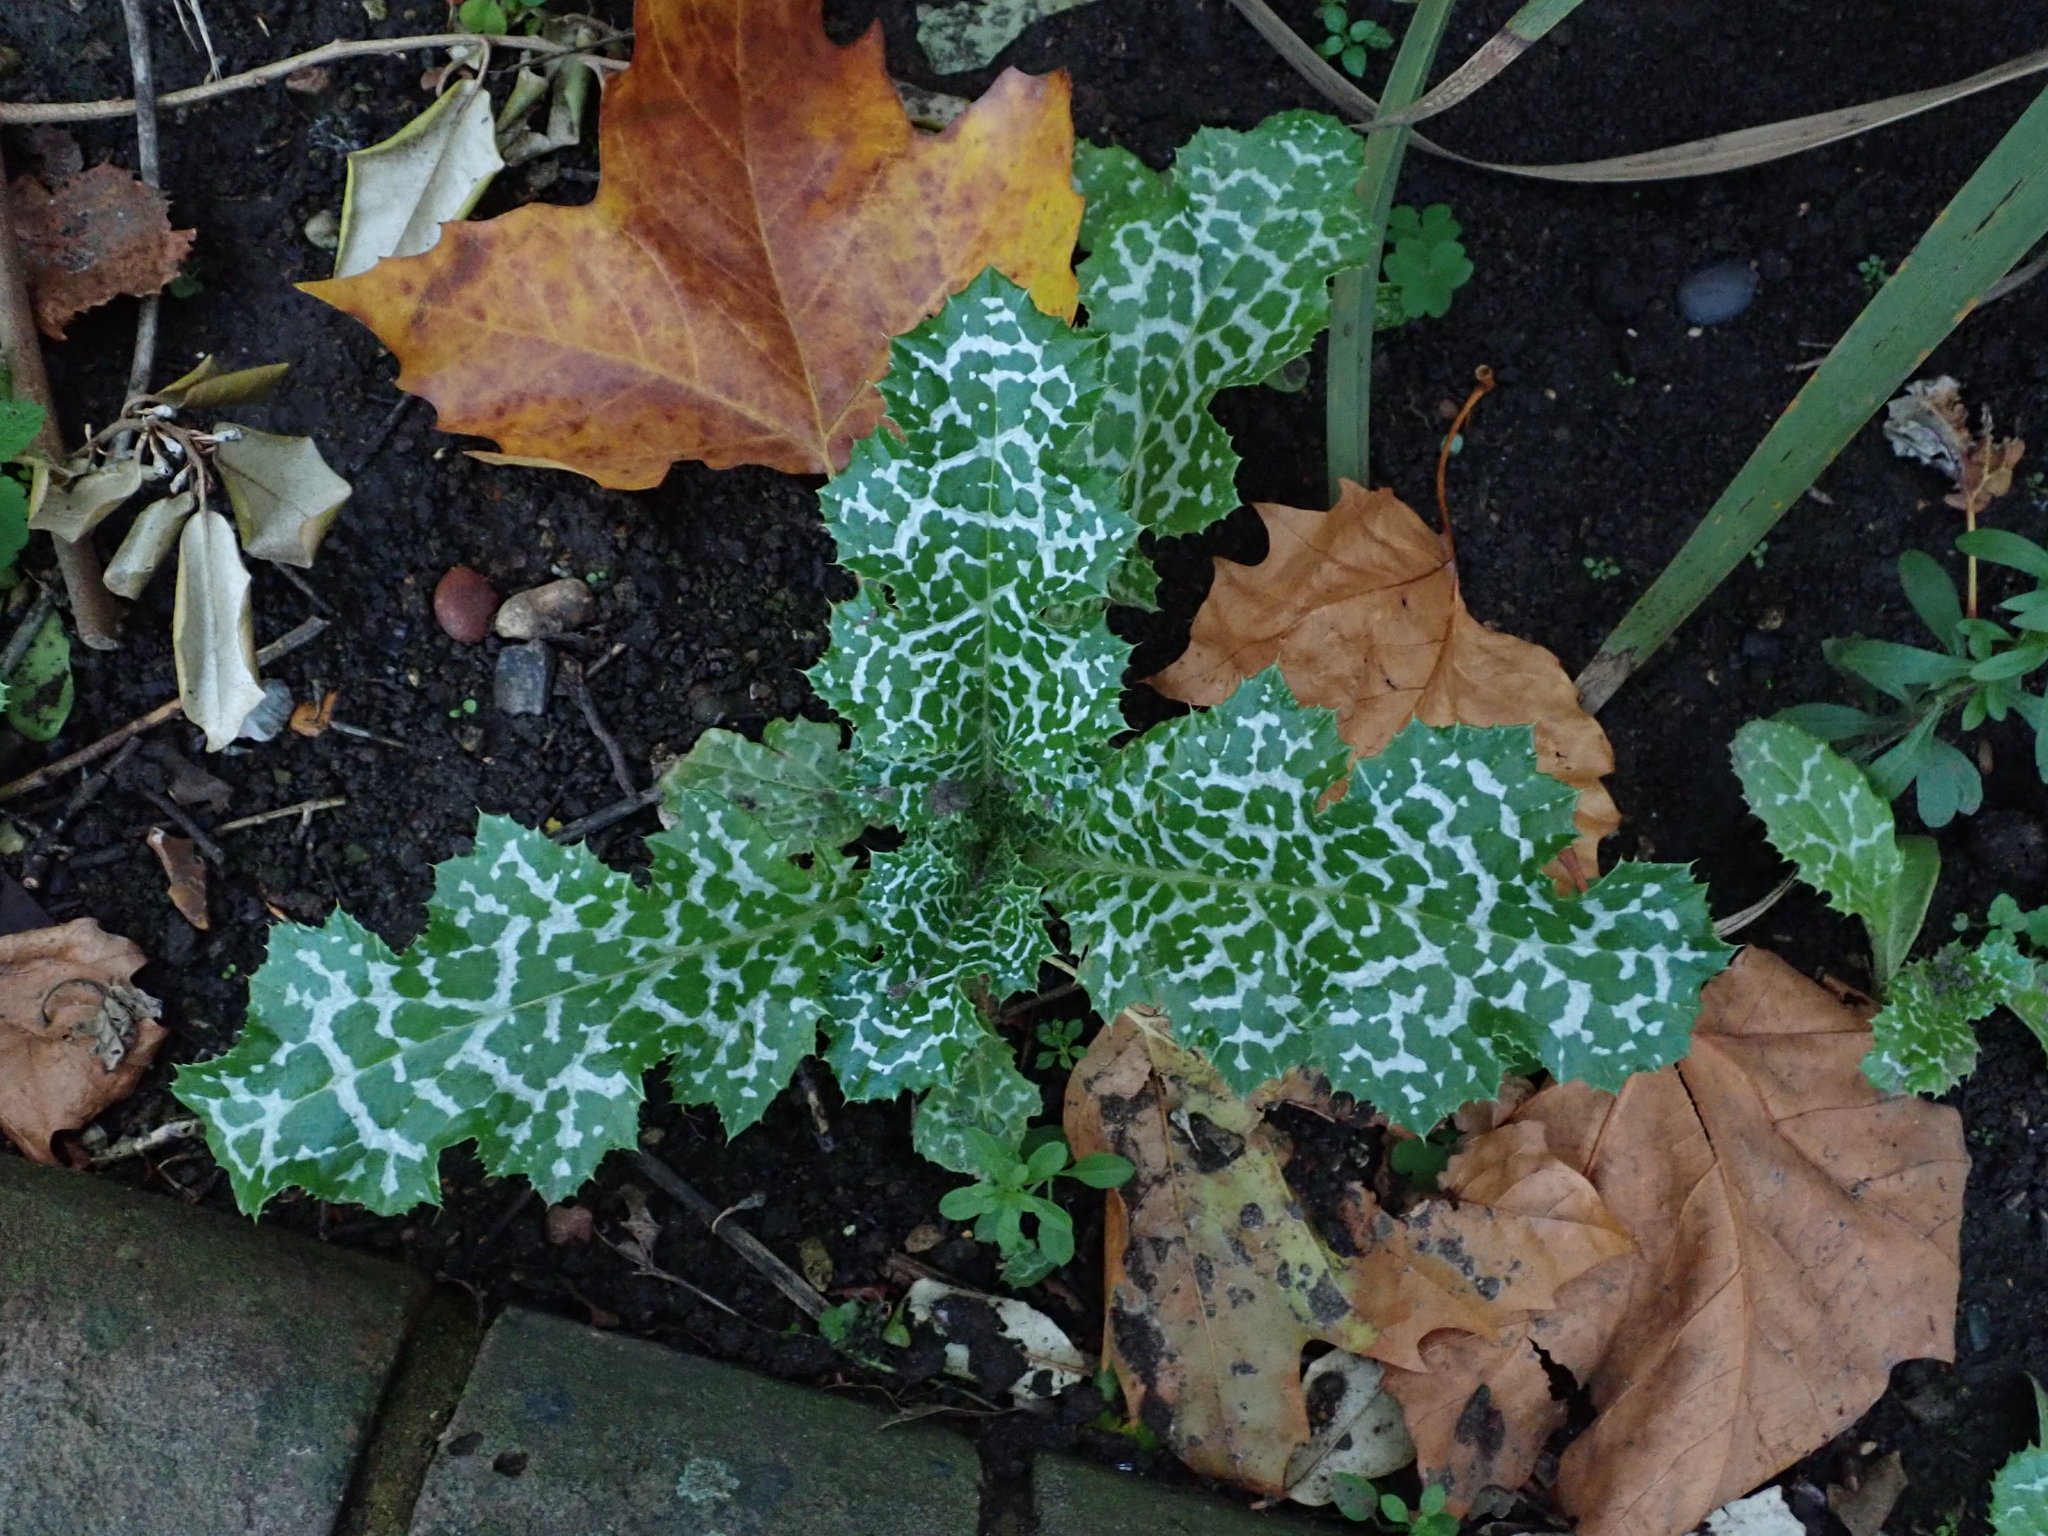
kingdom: Plantae
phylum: Tracheophyta
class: Magnoliopsida
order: Asterales
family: Asteraceae
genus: Silybum
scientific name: Silybum marianum
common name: Milk thistle
